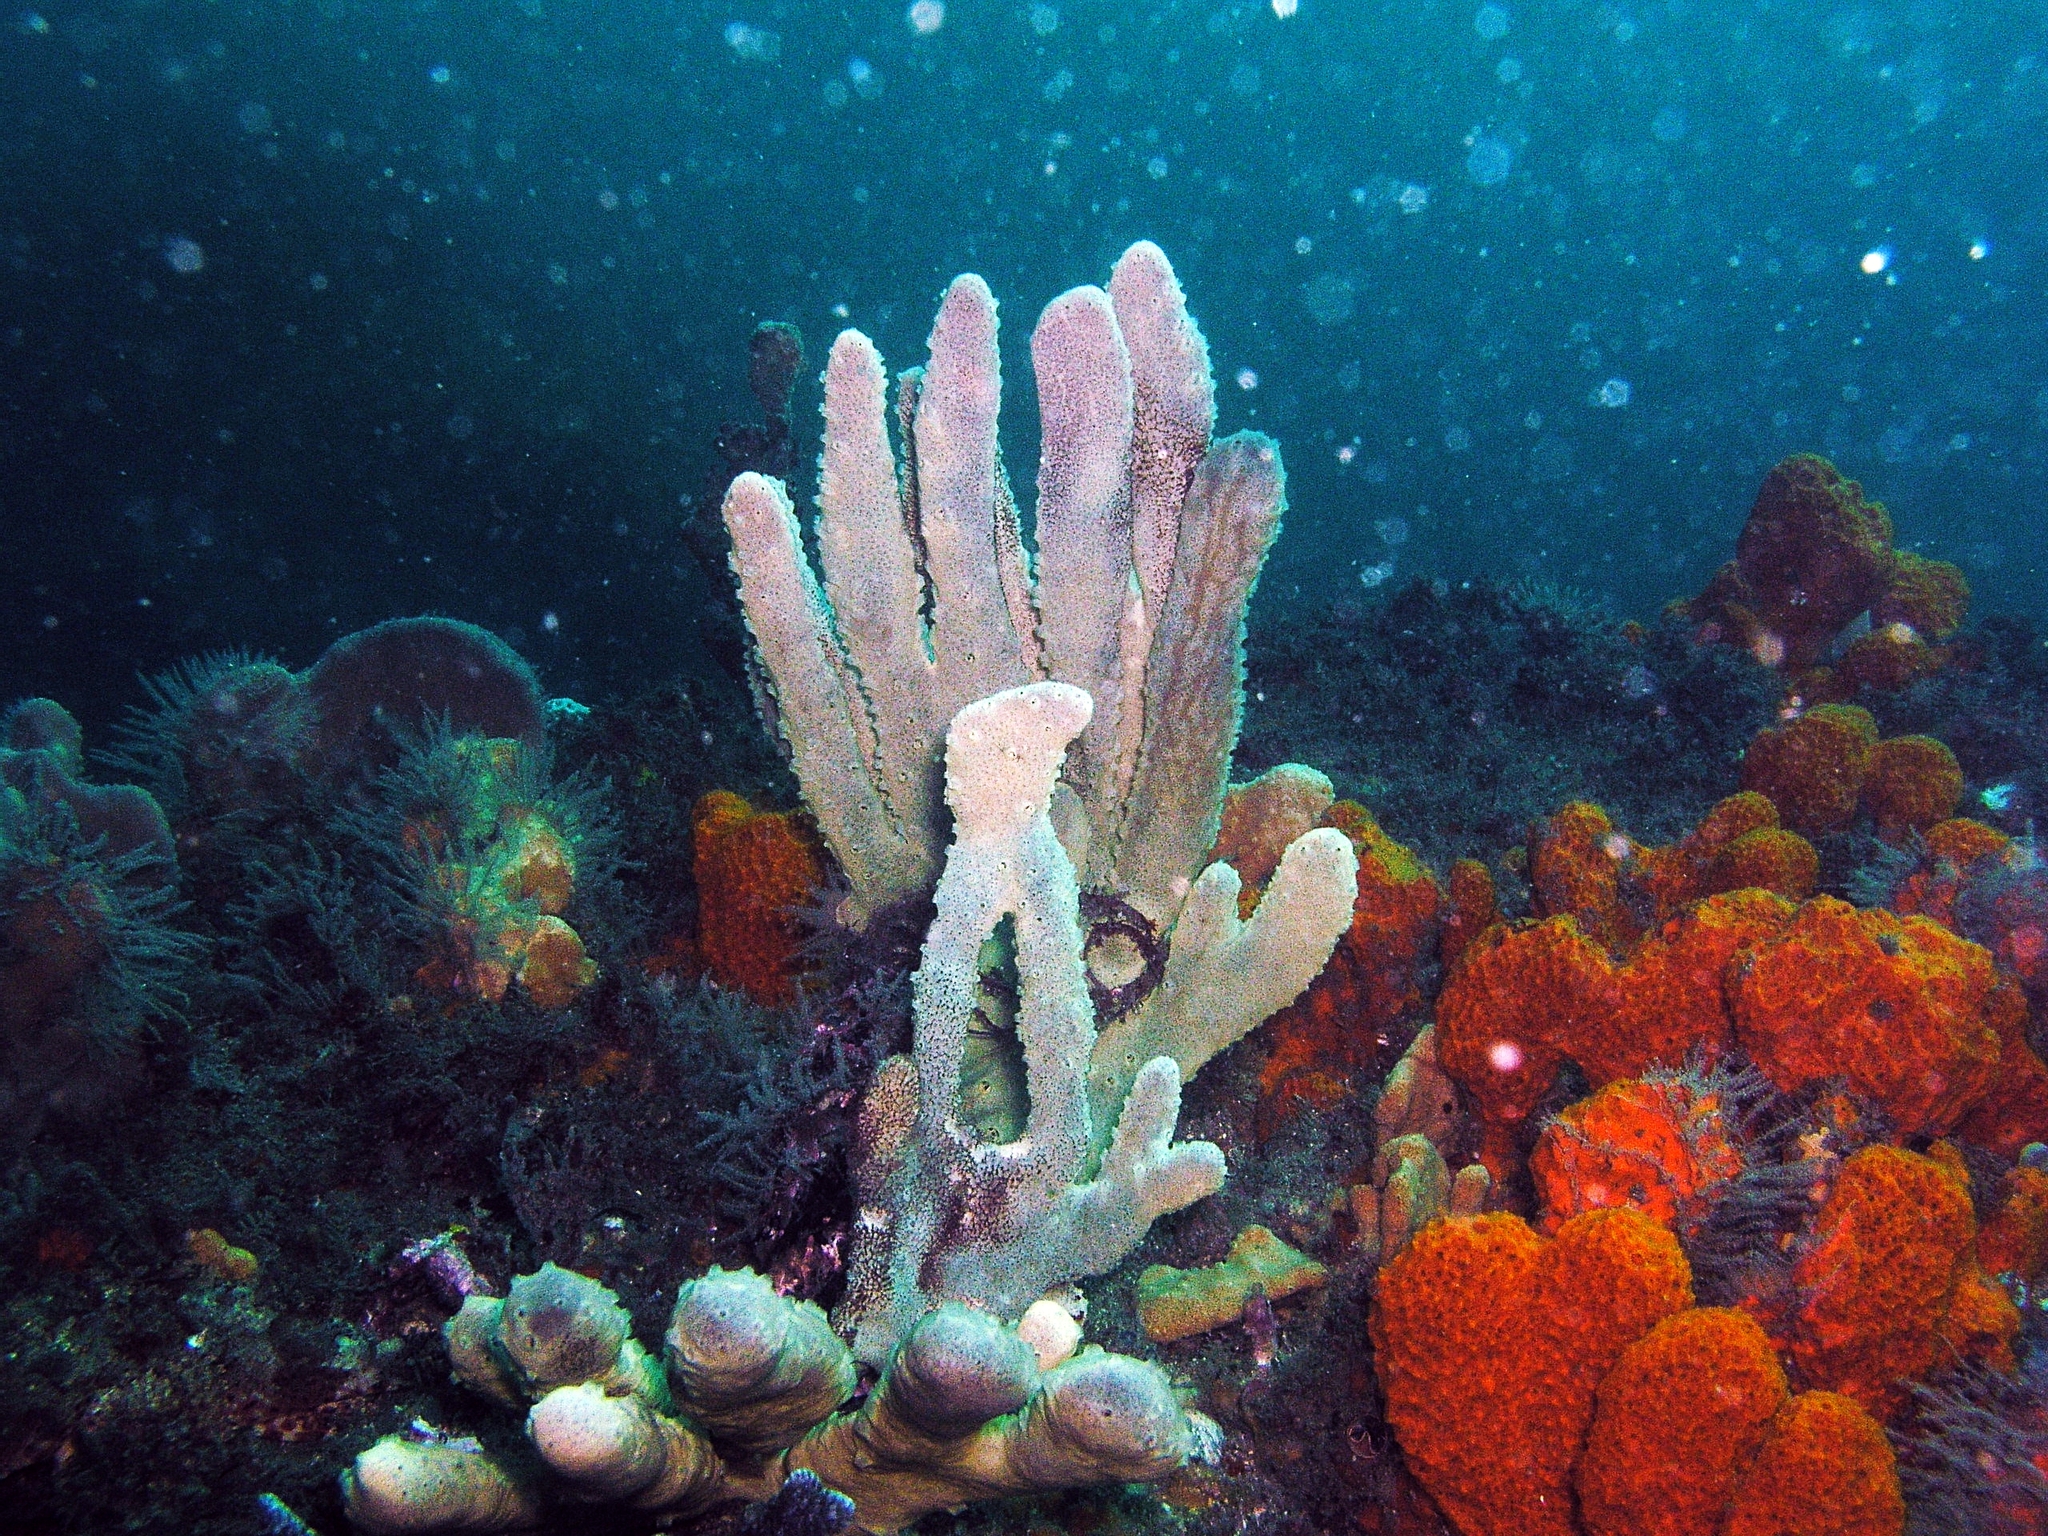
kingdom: Animalia
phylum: Porifera
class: Demospongiae
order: Haplosclerida
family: Callyspongiidae
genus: Callyspongia
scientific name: Callyspongia manus
